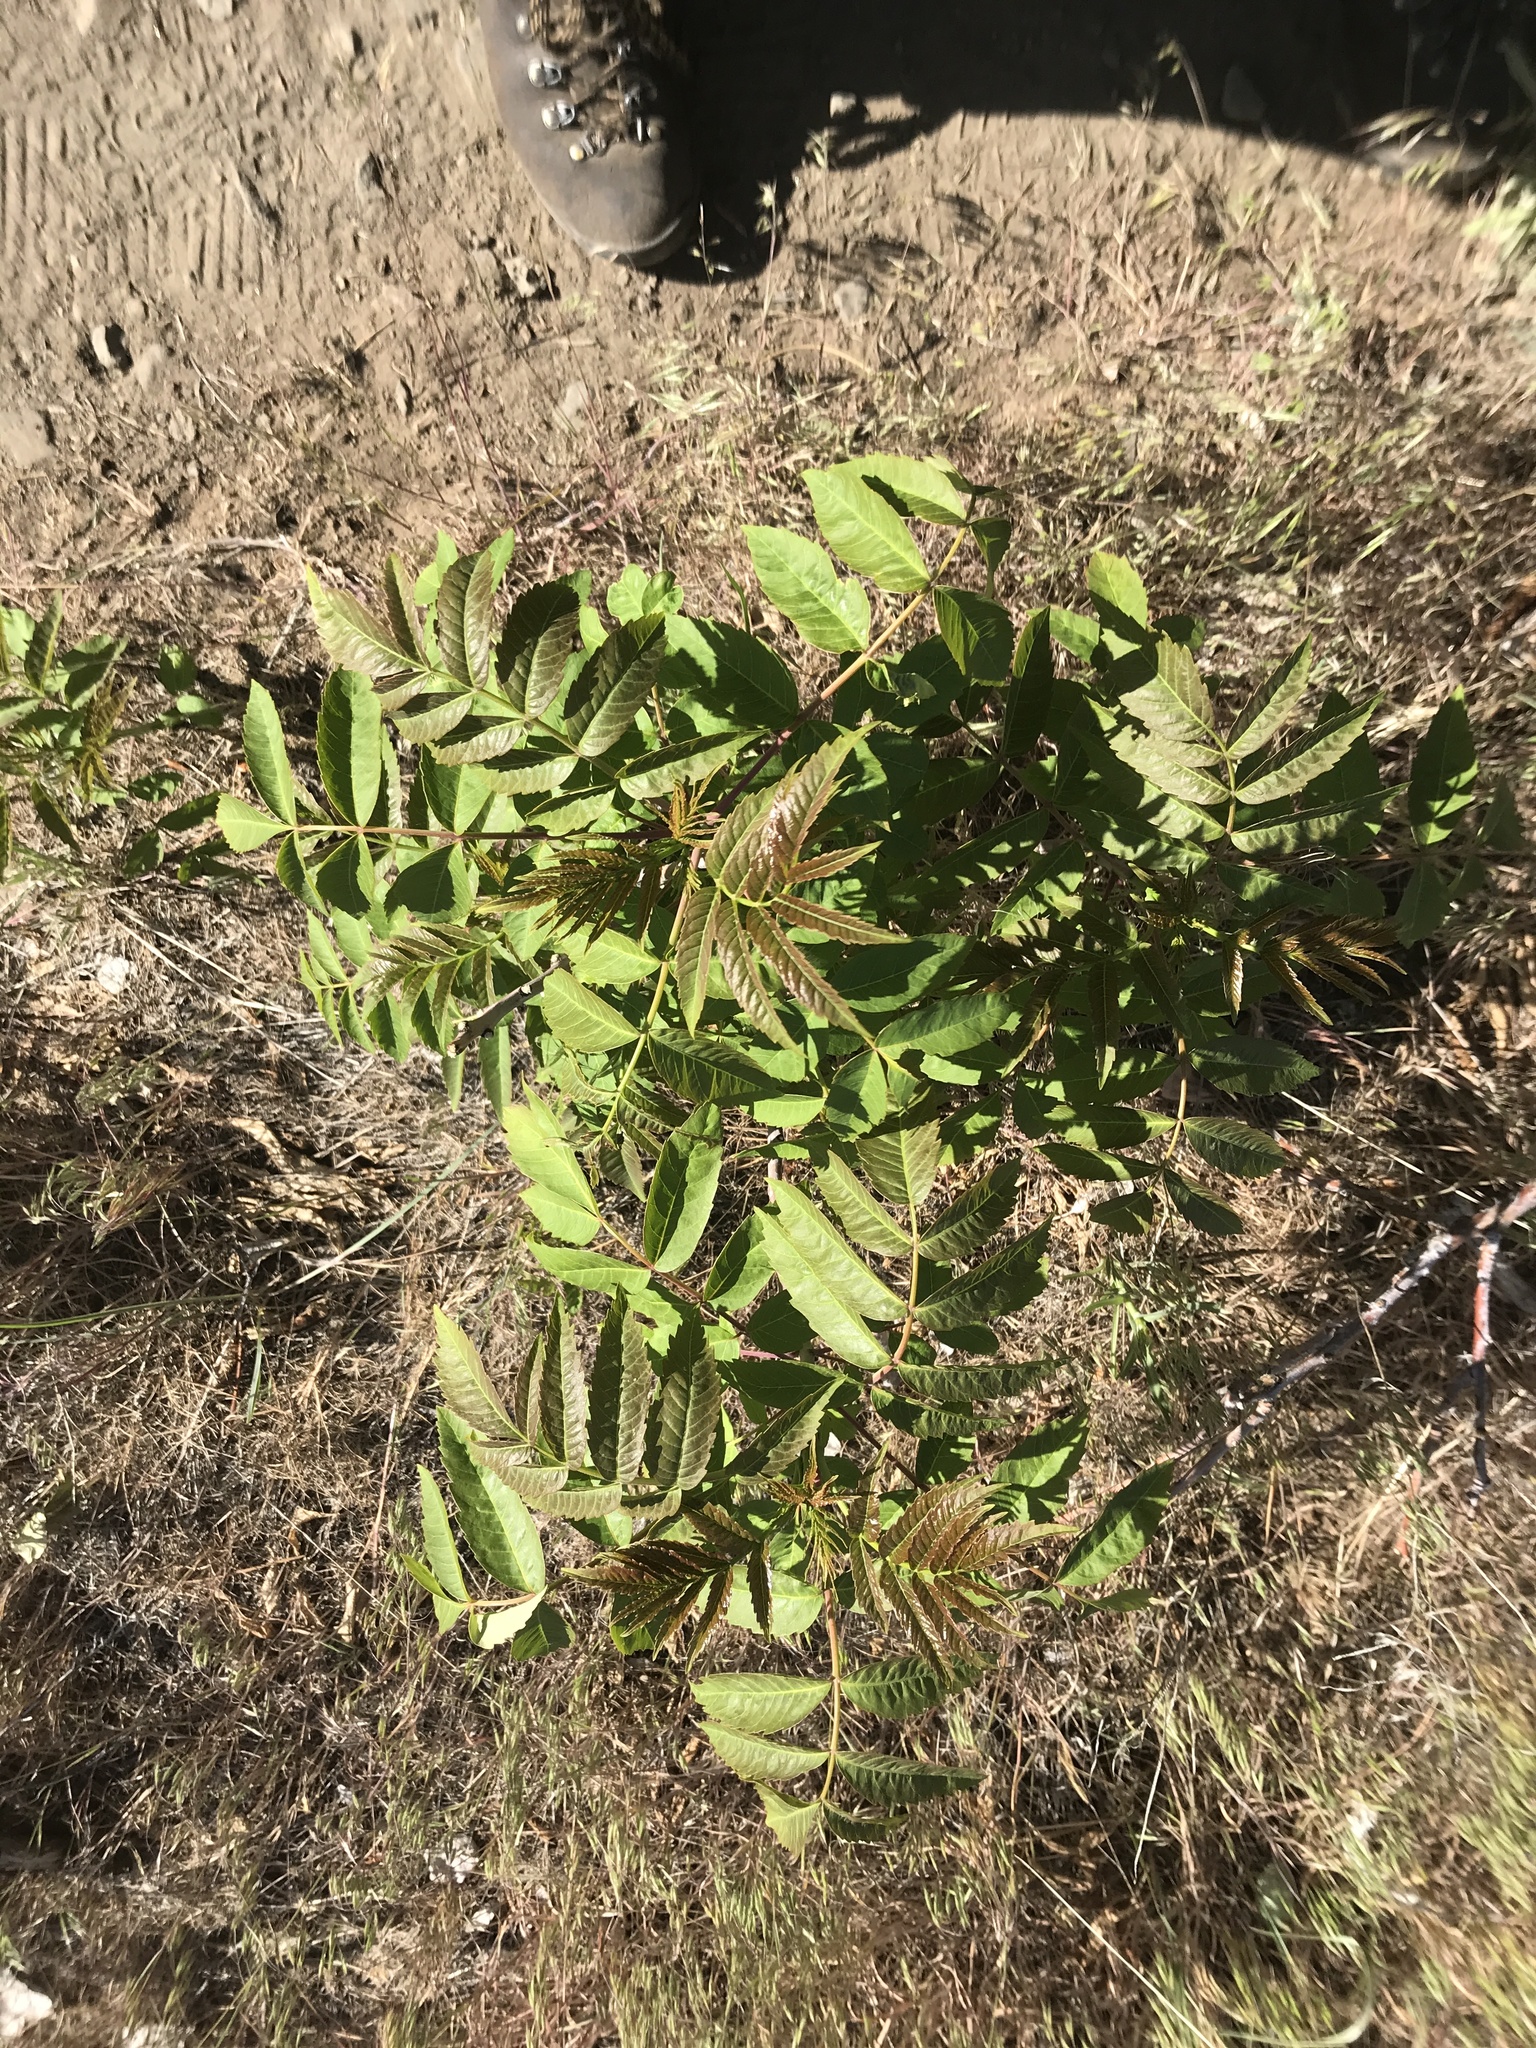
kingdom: Plantae
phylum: Tracheophyta
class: Magnoliopsida
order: Sapindales
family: Anacardiaceae
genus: Rhus
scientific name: Rhus glabra
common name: Scarlet sumac
